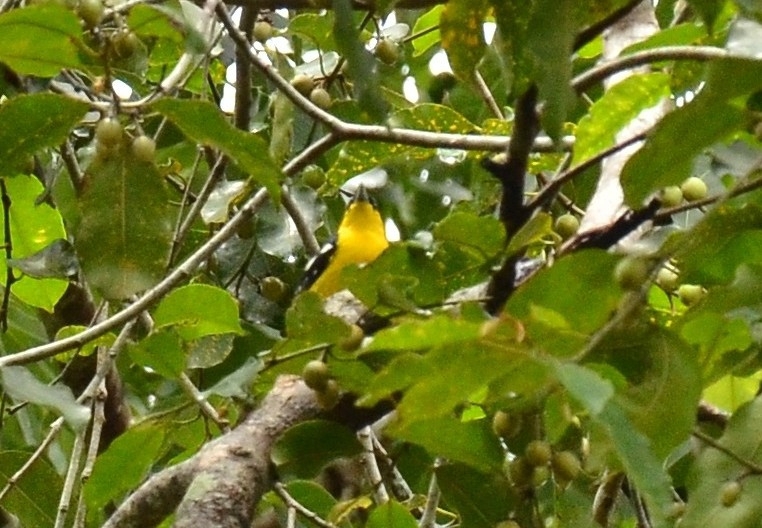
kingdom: Animalia
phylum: Chordata
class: Aves
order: Passeriformes
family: Aegithinidae
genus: Aegithina
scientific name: Aegithina tiphia
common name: Common iora
